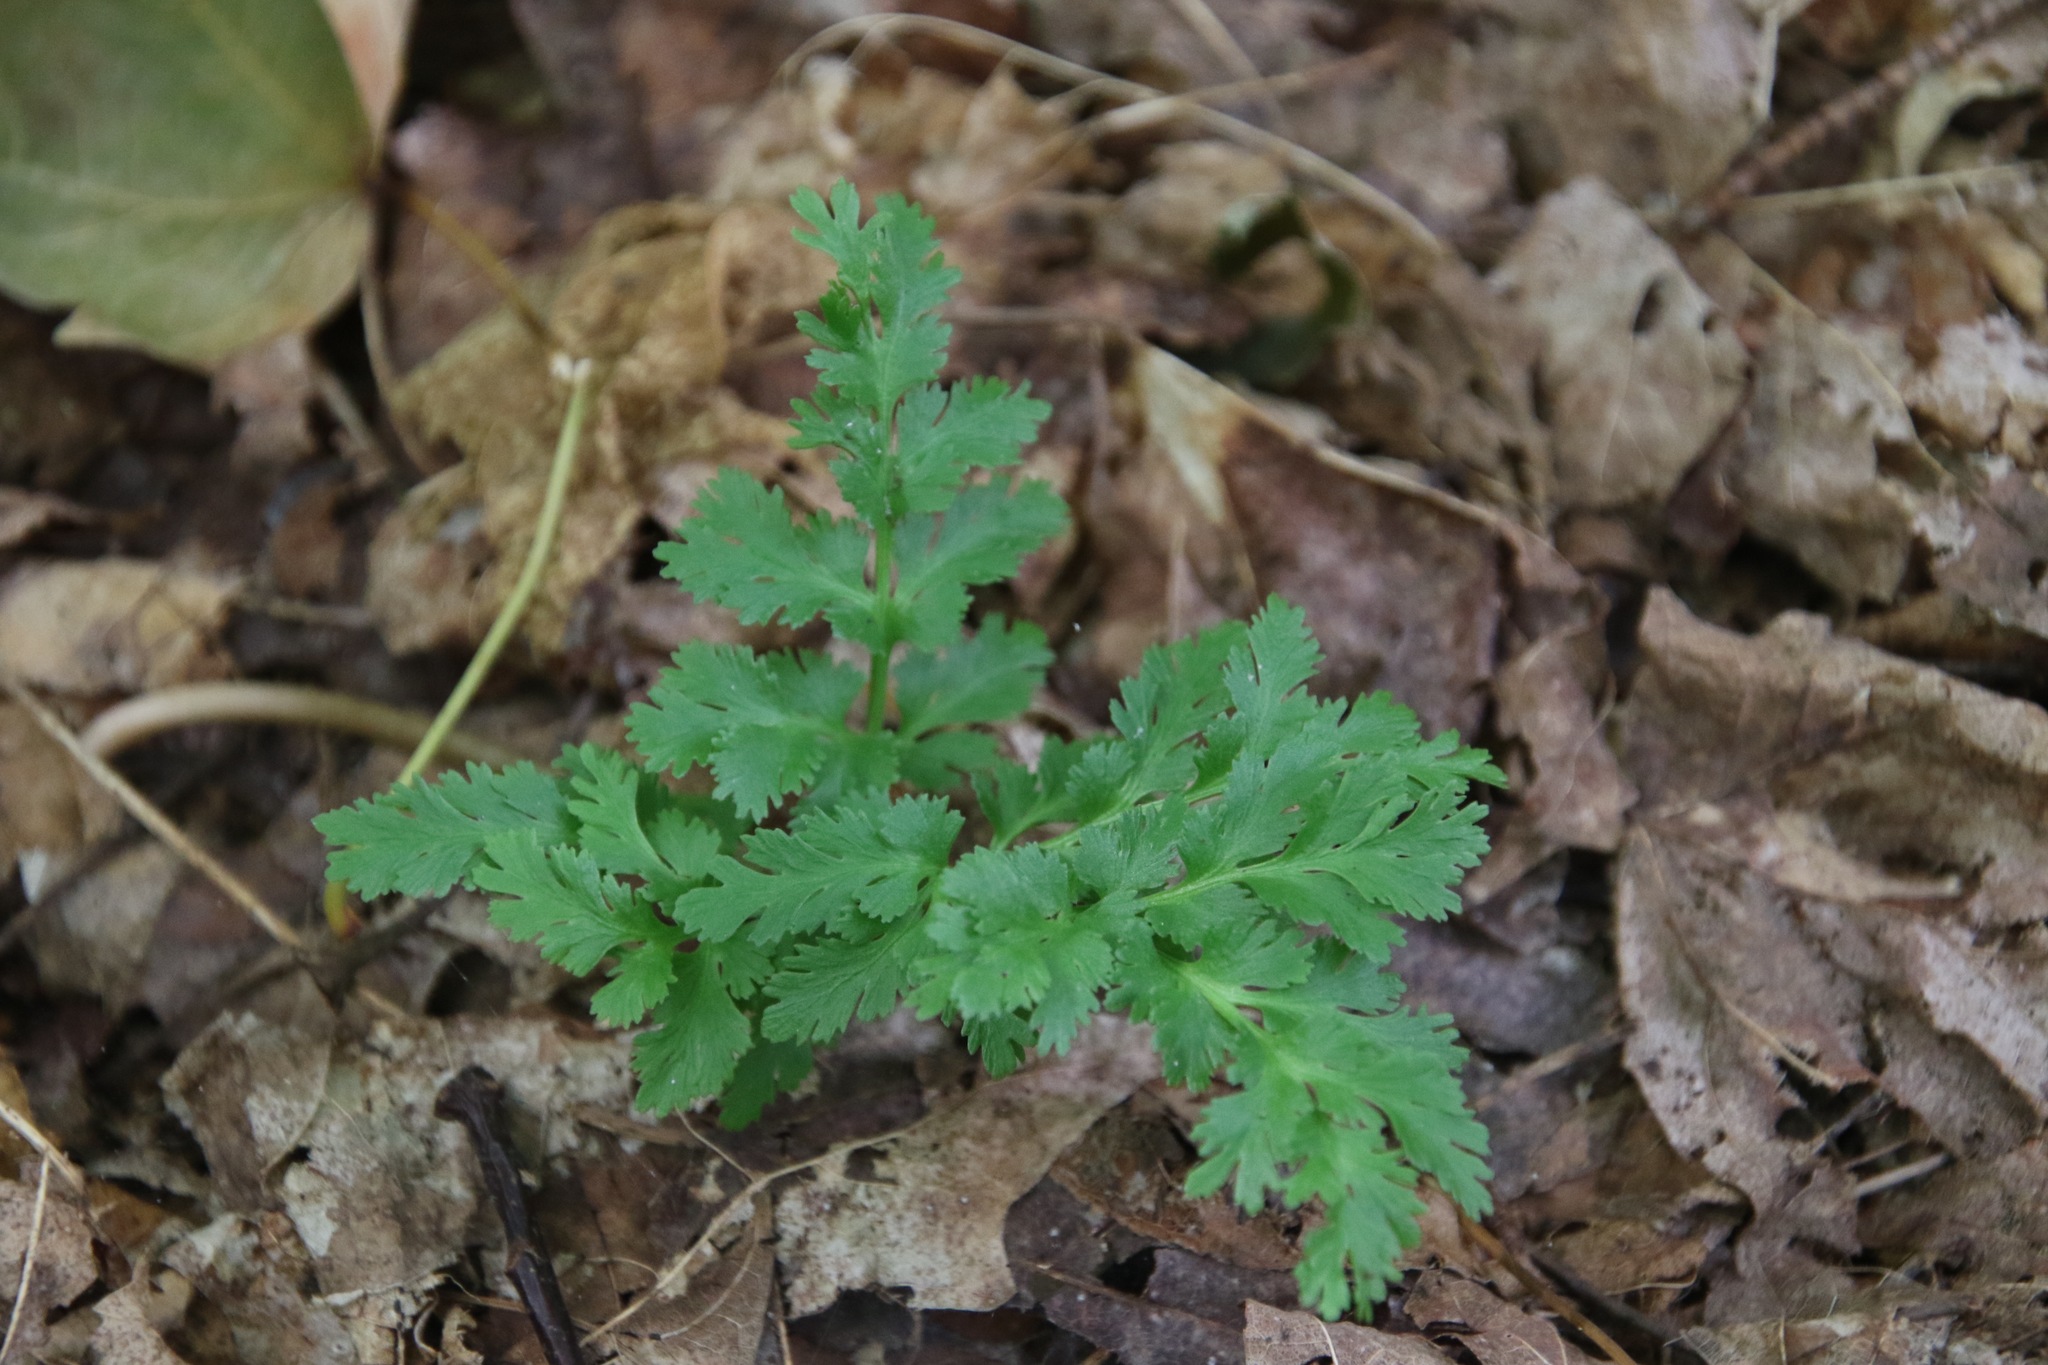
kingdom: Plantae
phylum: Tracheophyta
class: Polypodiopsida
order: Ophioglossales
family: Ophioglossaceae
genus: Sceptridium
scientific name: Sceptridium dissectum
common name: Cut-leaved grapefern
